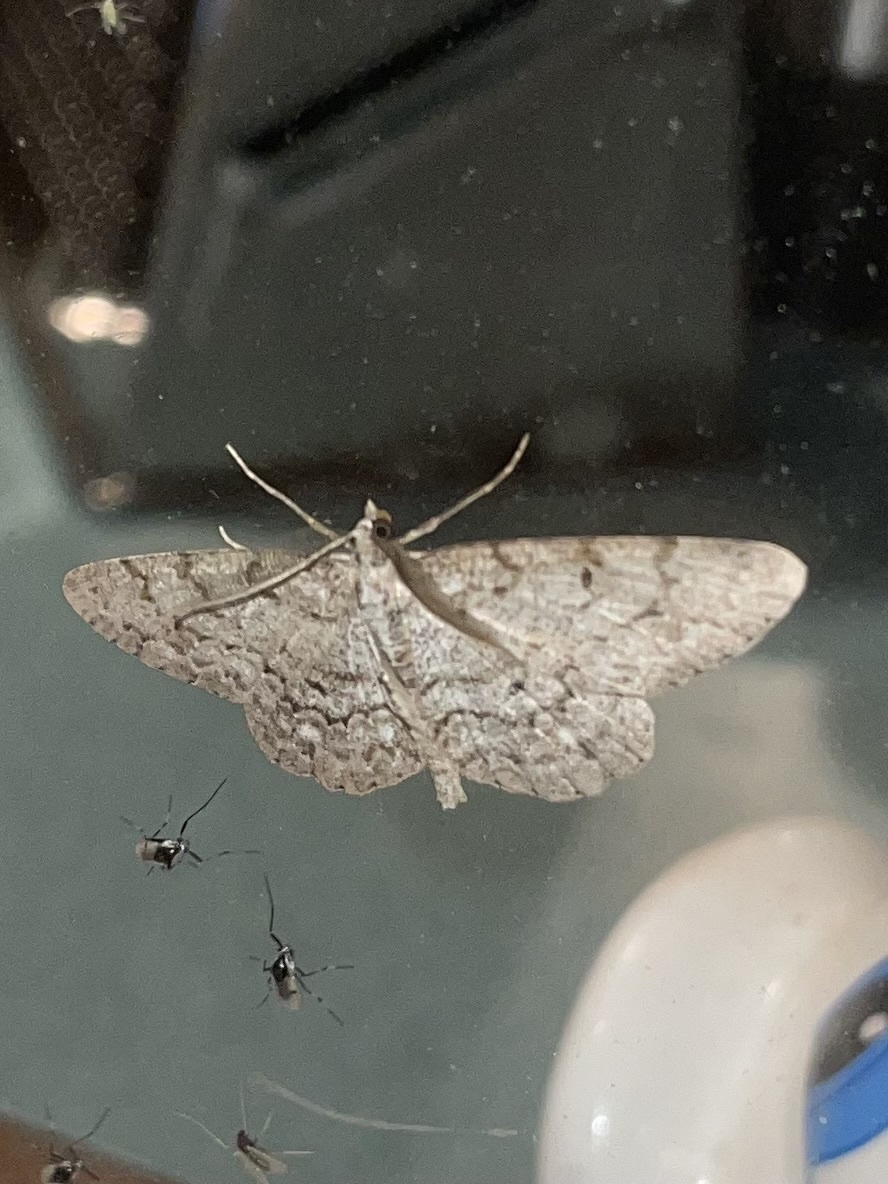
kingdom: Animalia
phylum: Arthropoda
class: Insecta
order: Lepidoptera
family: Geometridae
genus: Protoboarmia
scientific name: Protoboarmia porcelaria
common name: Porcelain gray
